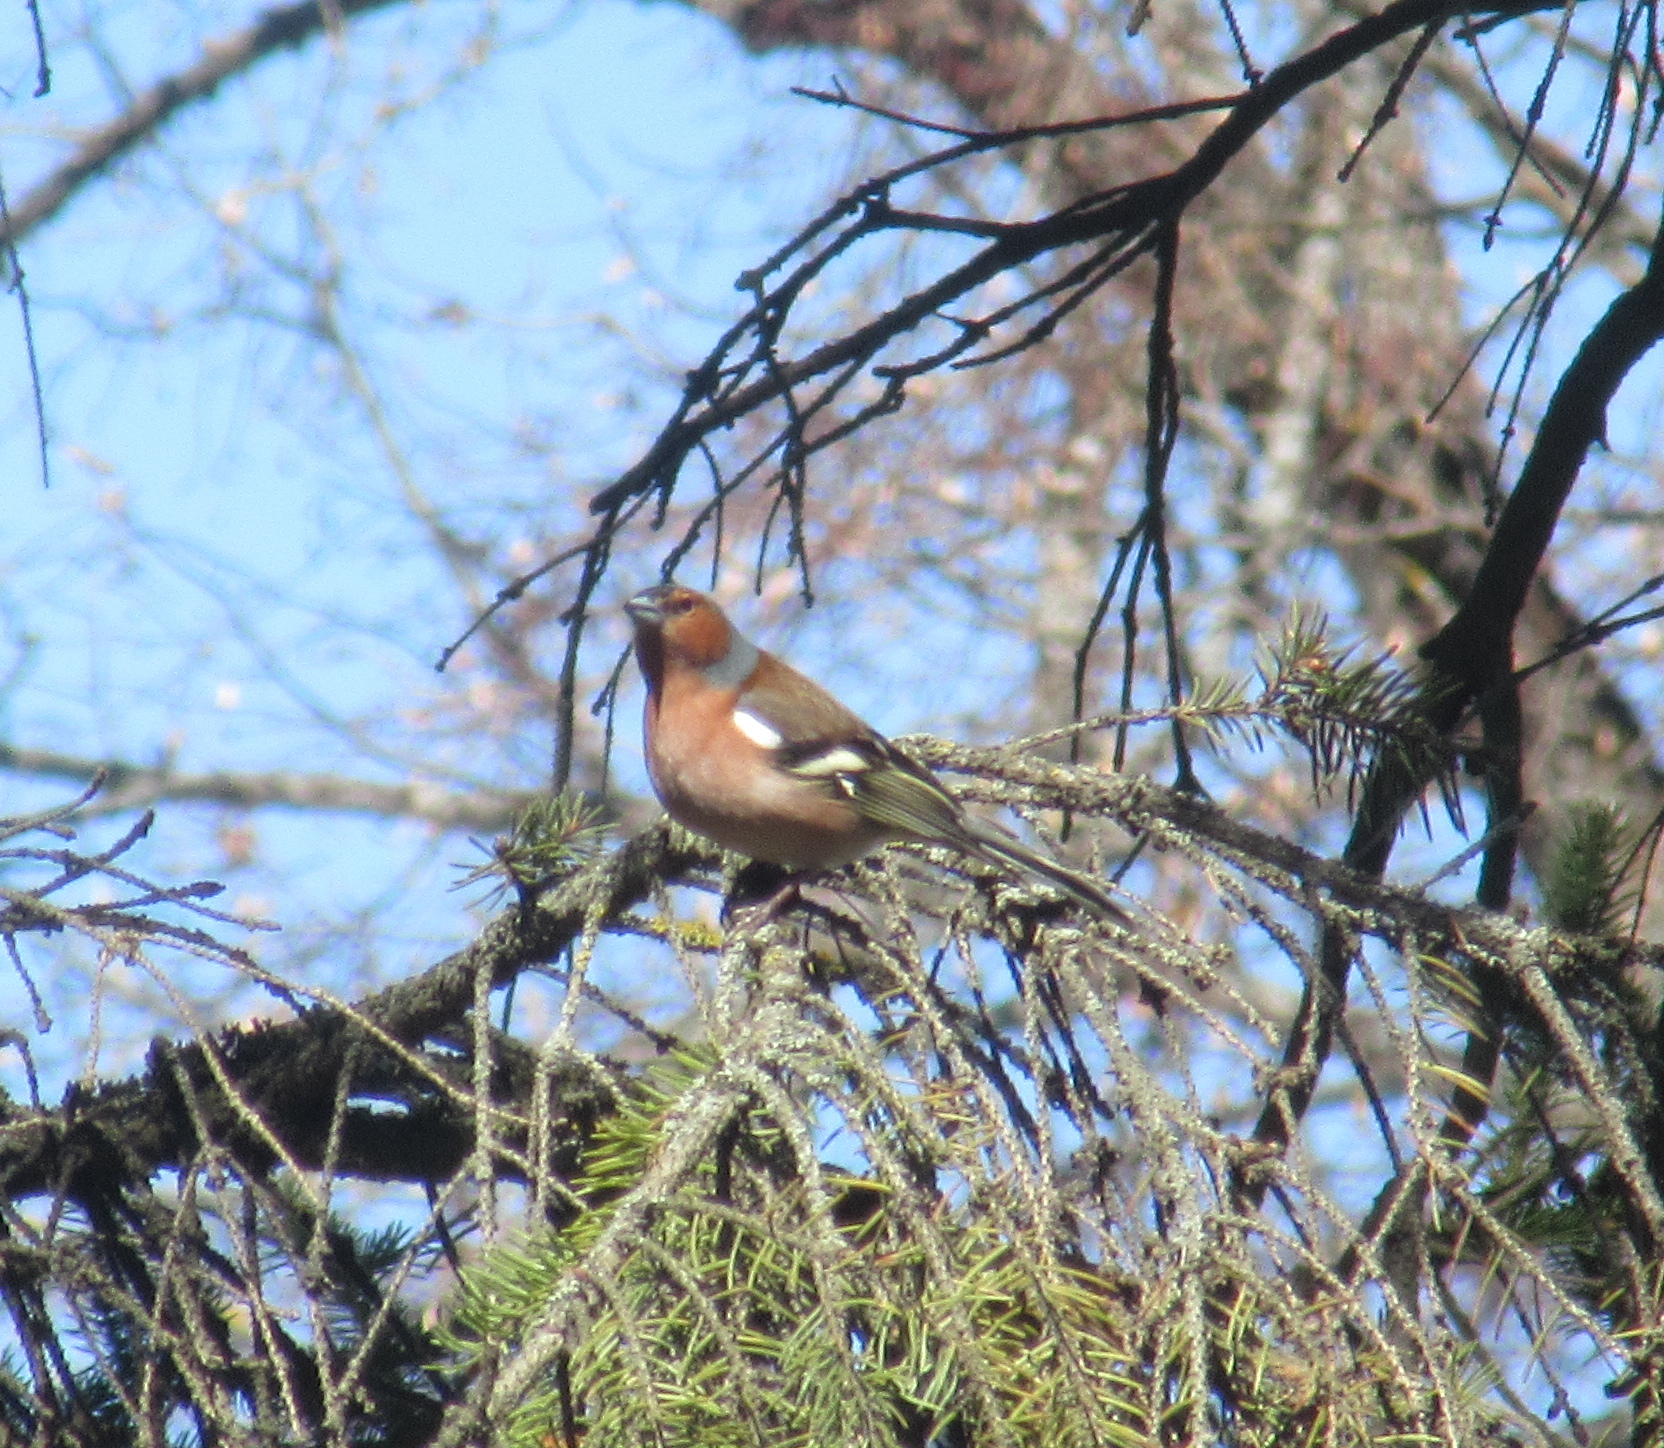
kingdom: Animalia
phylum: Chordata
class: Aves
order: Passeriformes
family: Fringillidae
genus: Fringilla
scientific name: Fringilla coelebs
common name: Common chaffinch
